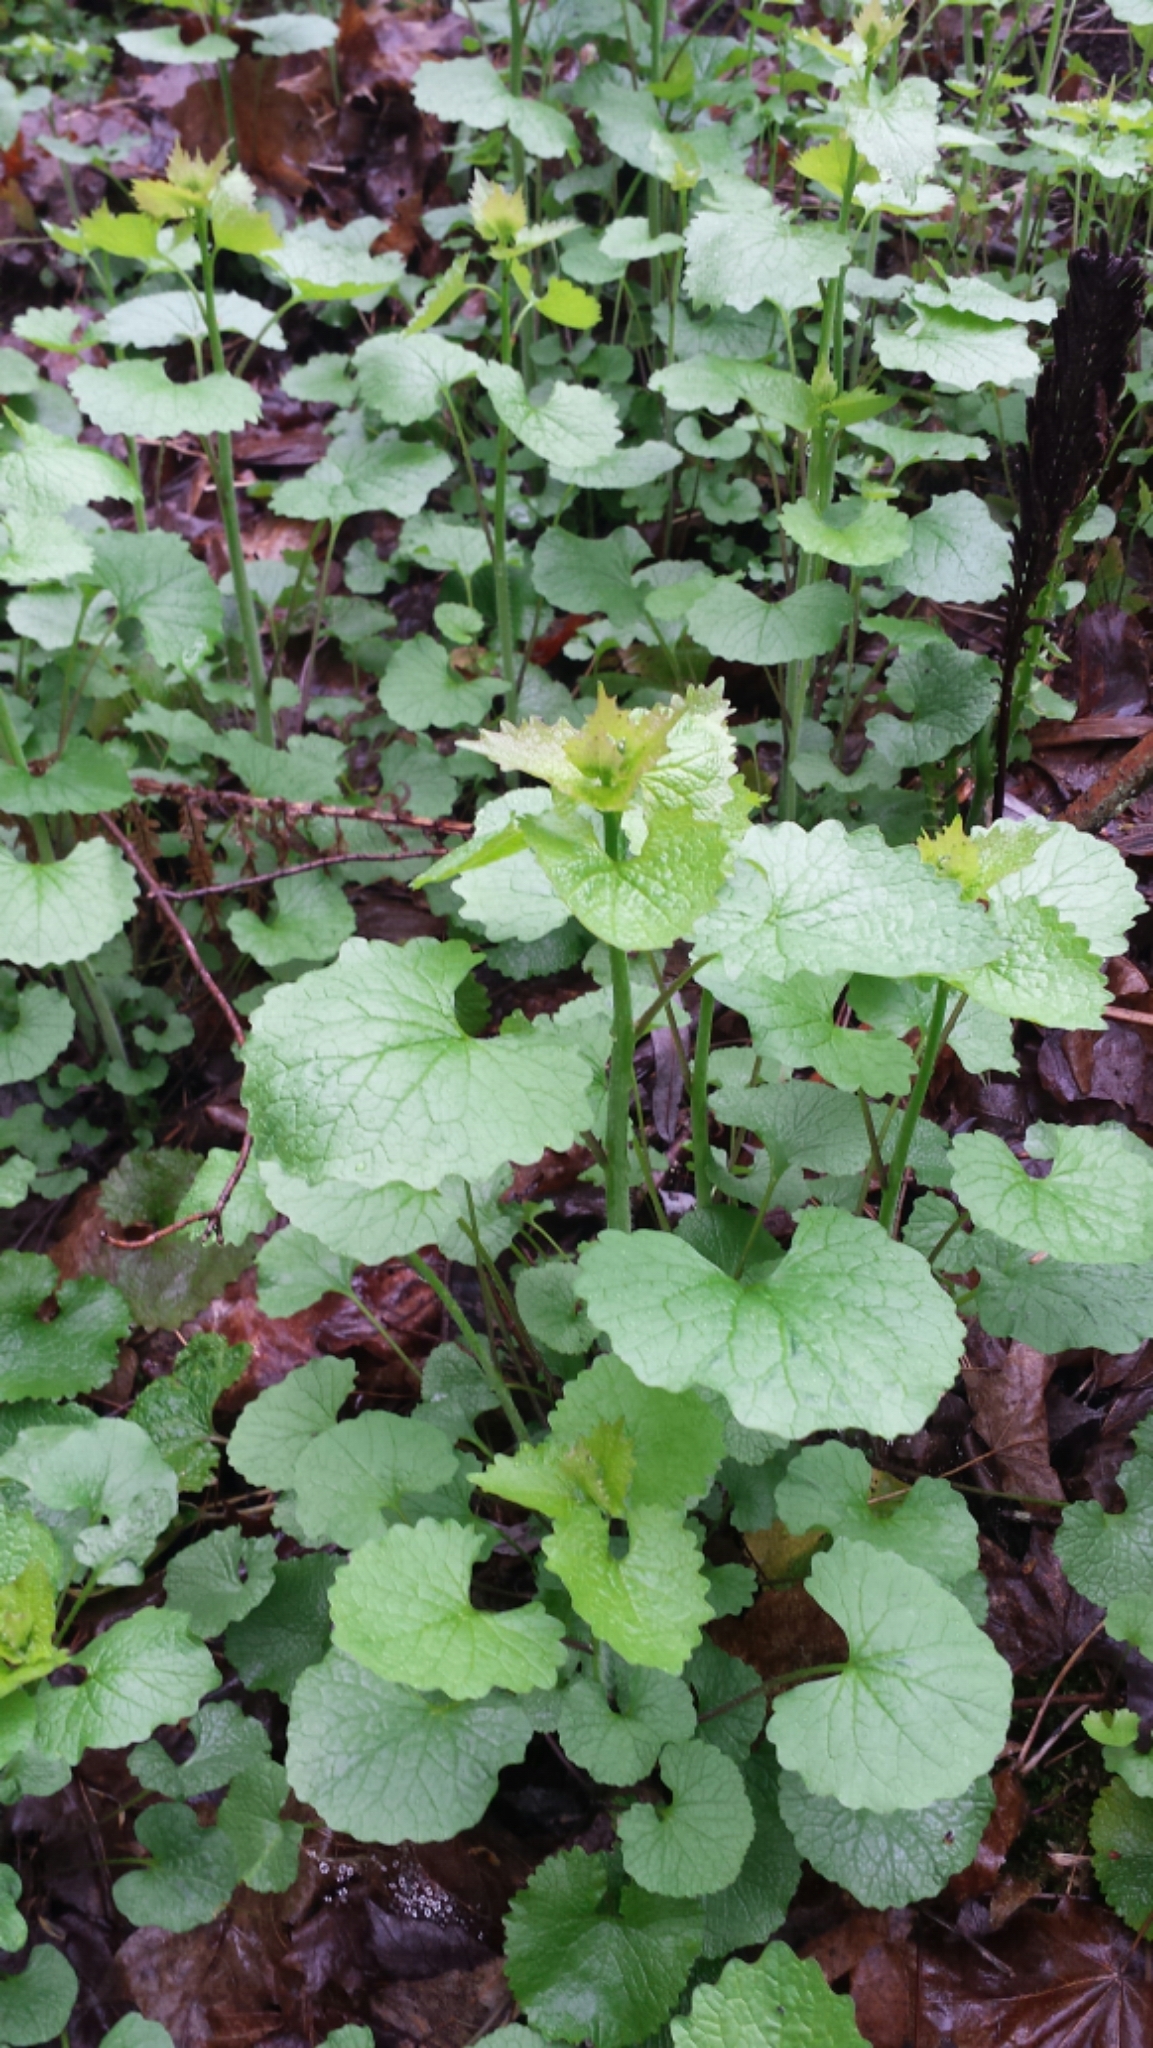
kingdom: Plantae
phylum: Tracheophyta
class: Magnoliopsida
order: Brassicales
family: Brassicaceae
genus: Alliaria
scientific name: Alliaria petiolata
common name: Garlic mustard
